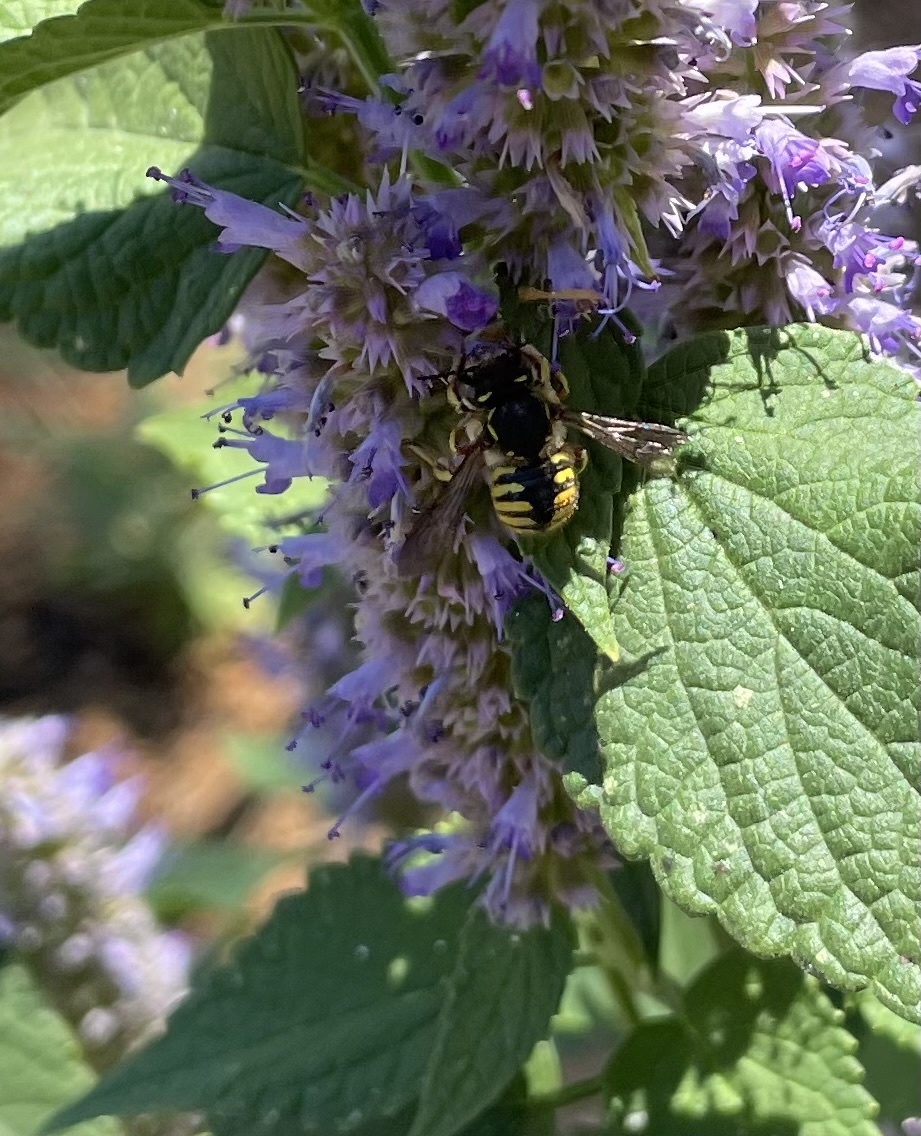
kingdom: Animalia
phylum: Arthropoda
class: Insecta
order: Hymenoptera
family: Megachilidae
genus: Anthidium
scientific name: Anthidium manicatum
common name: Wool carder bee
